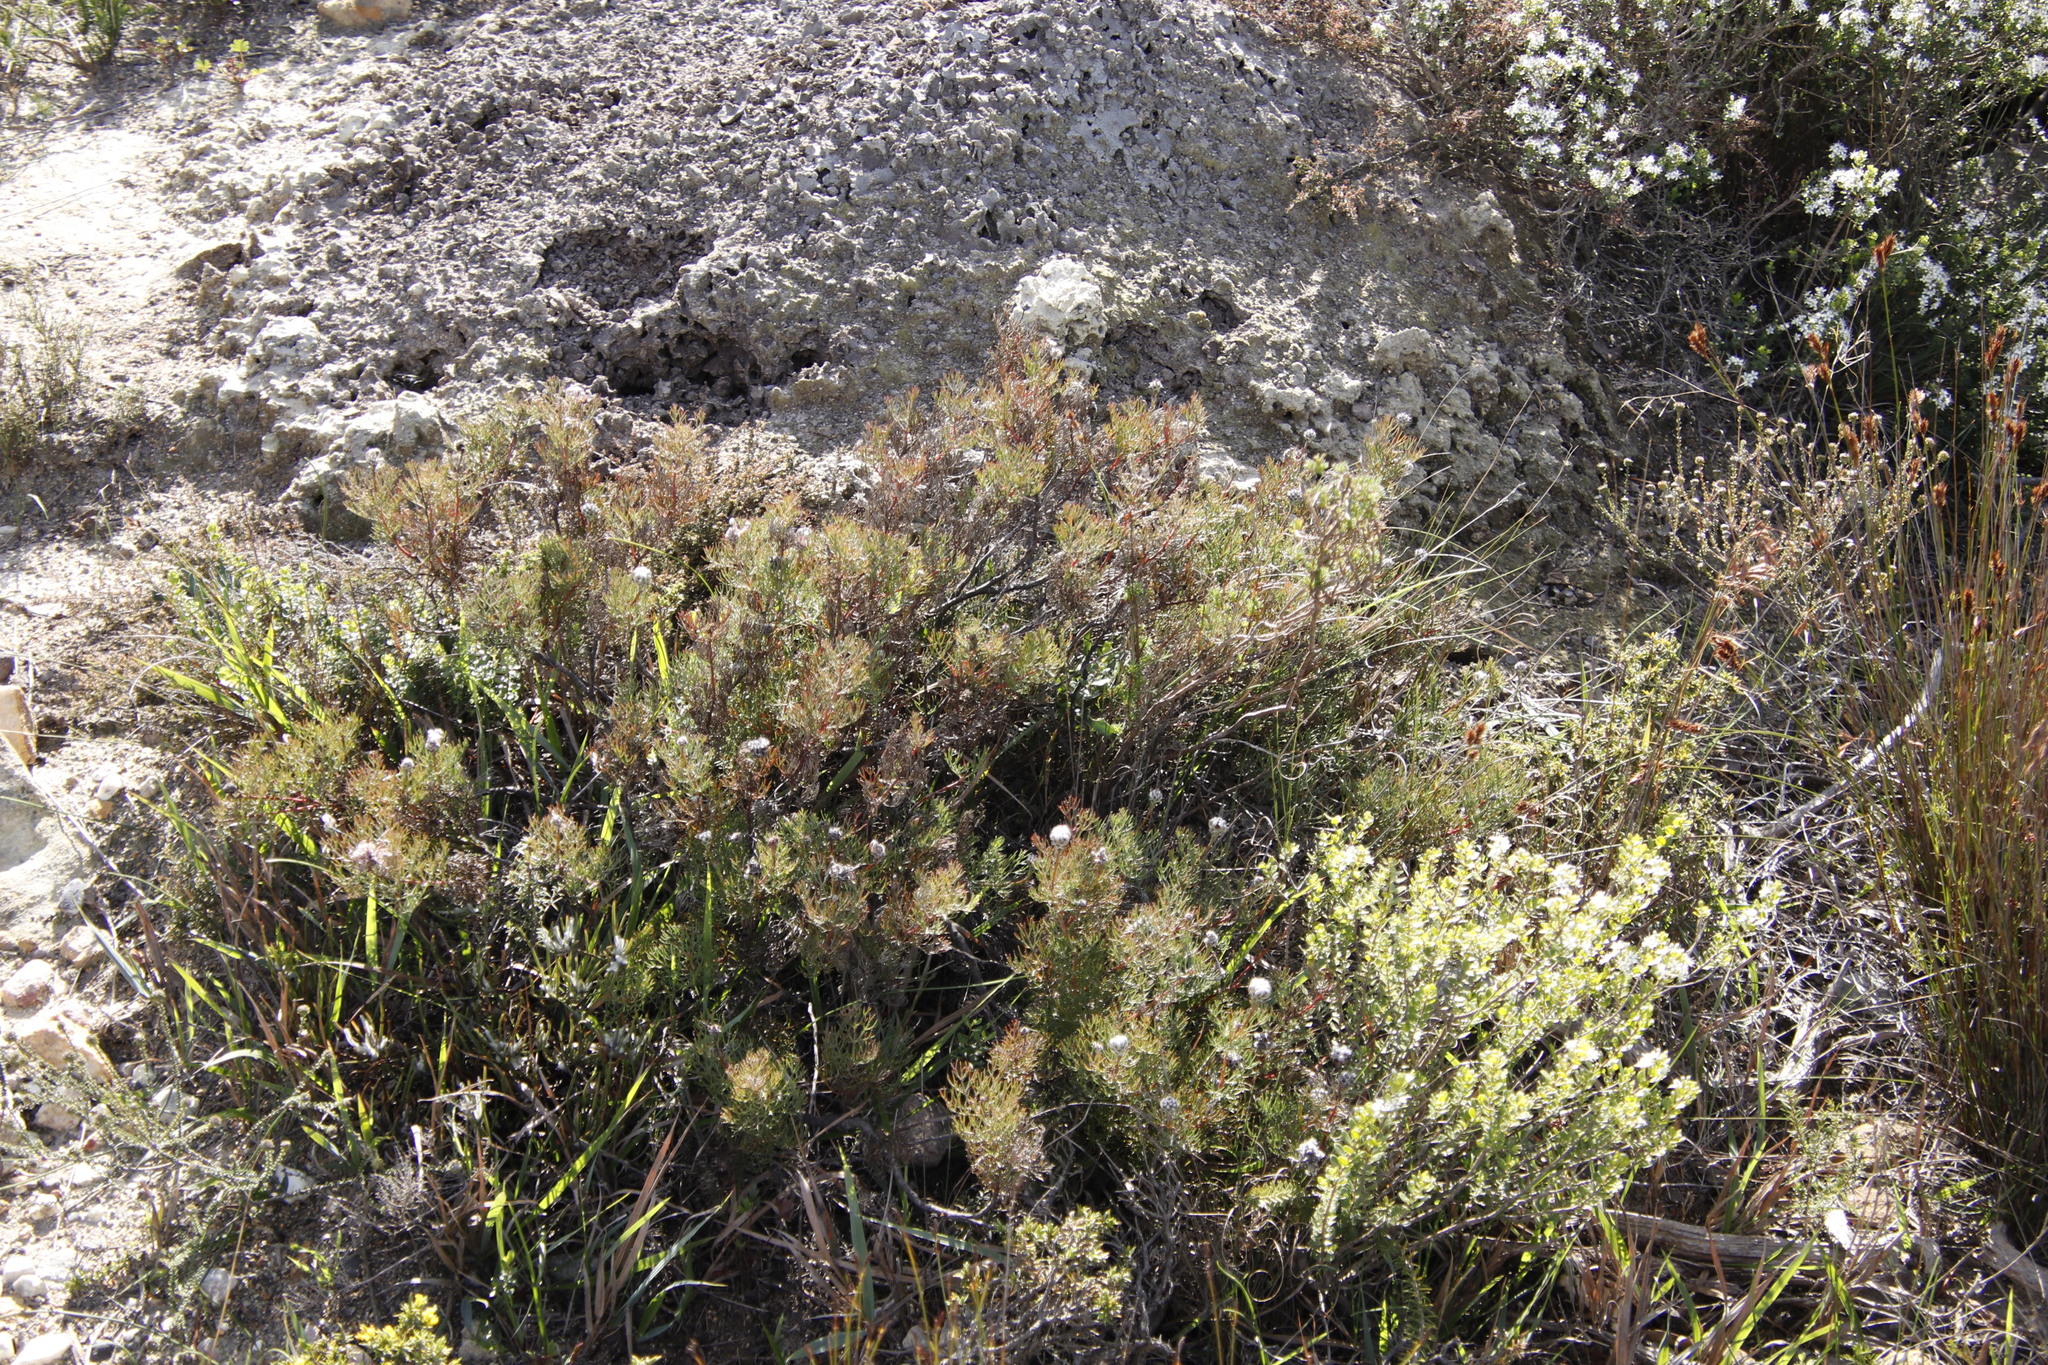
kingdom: Plantae
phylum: Tracheophyta
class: Magnoliopsida
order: Proteales
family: Proteaceae
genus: Serruria
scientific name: Serruria gremialis
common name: Riviersonderend spiderhead
